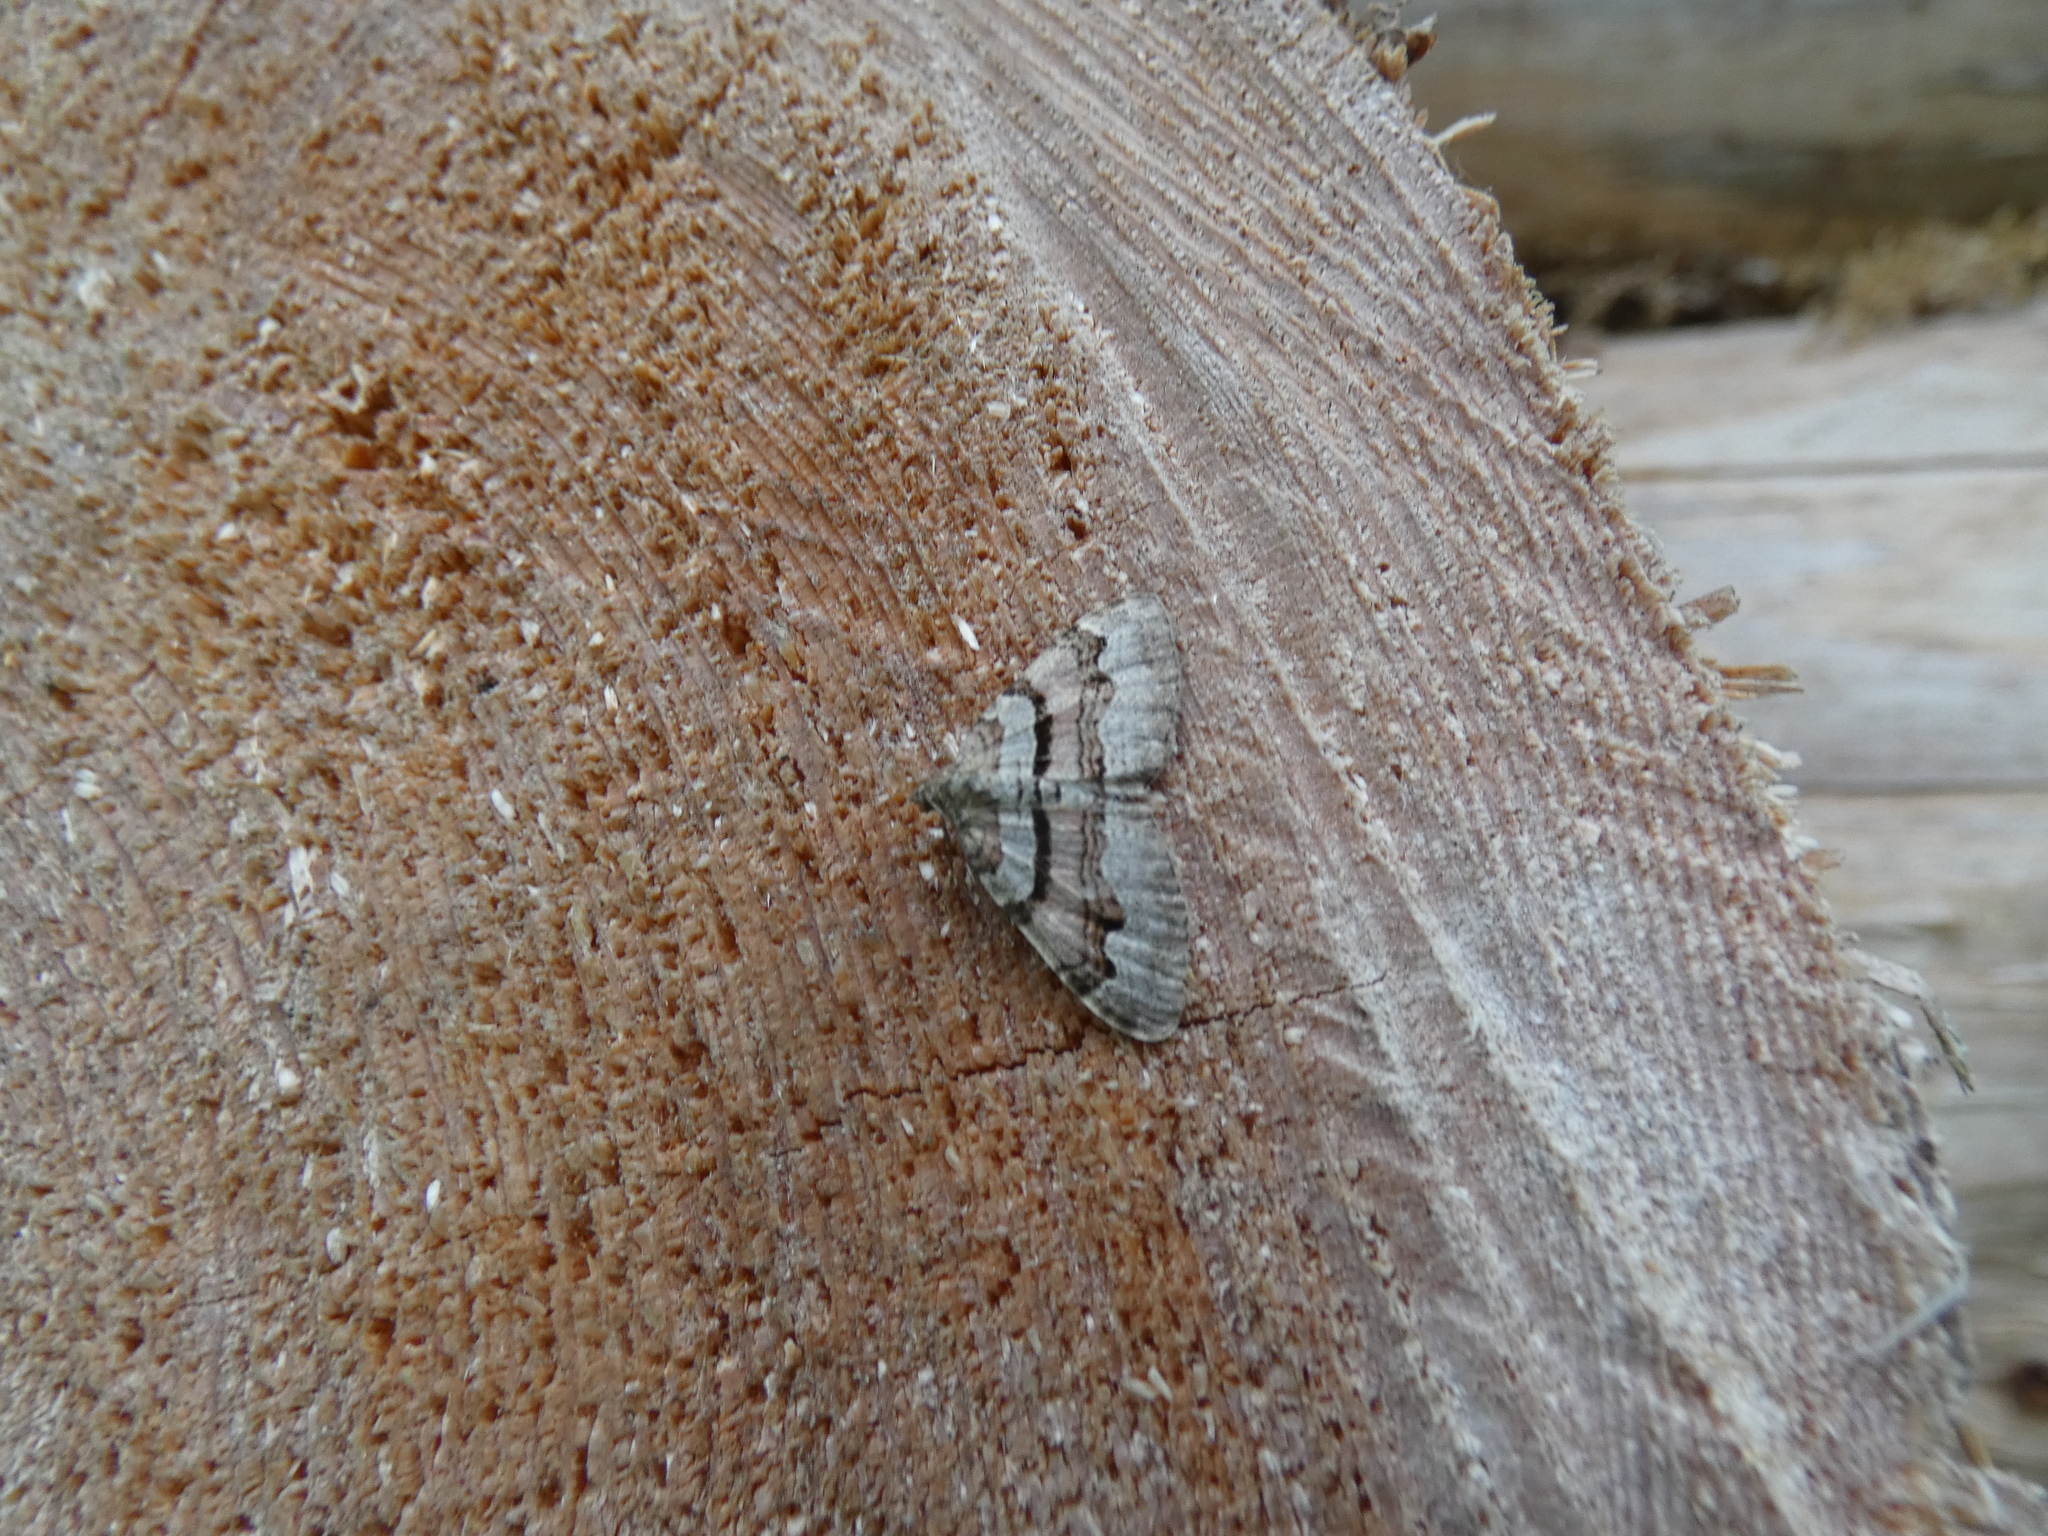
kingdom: Animalia
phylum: Arthropoda
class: Insecta
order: Lepidoptera
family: Geometridae
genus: Xanthorhoe
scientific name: Xanthorhoe designata
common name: Flame carpet
